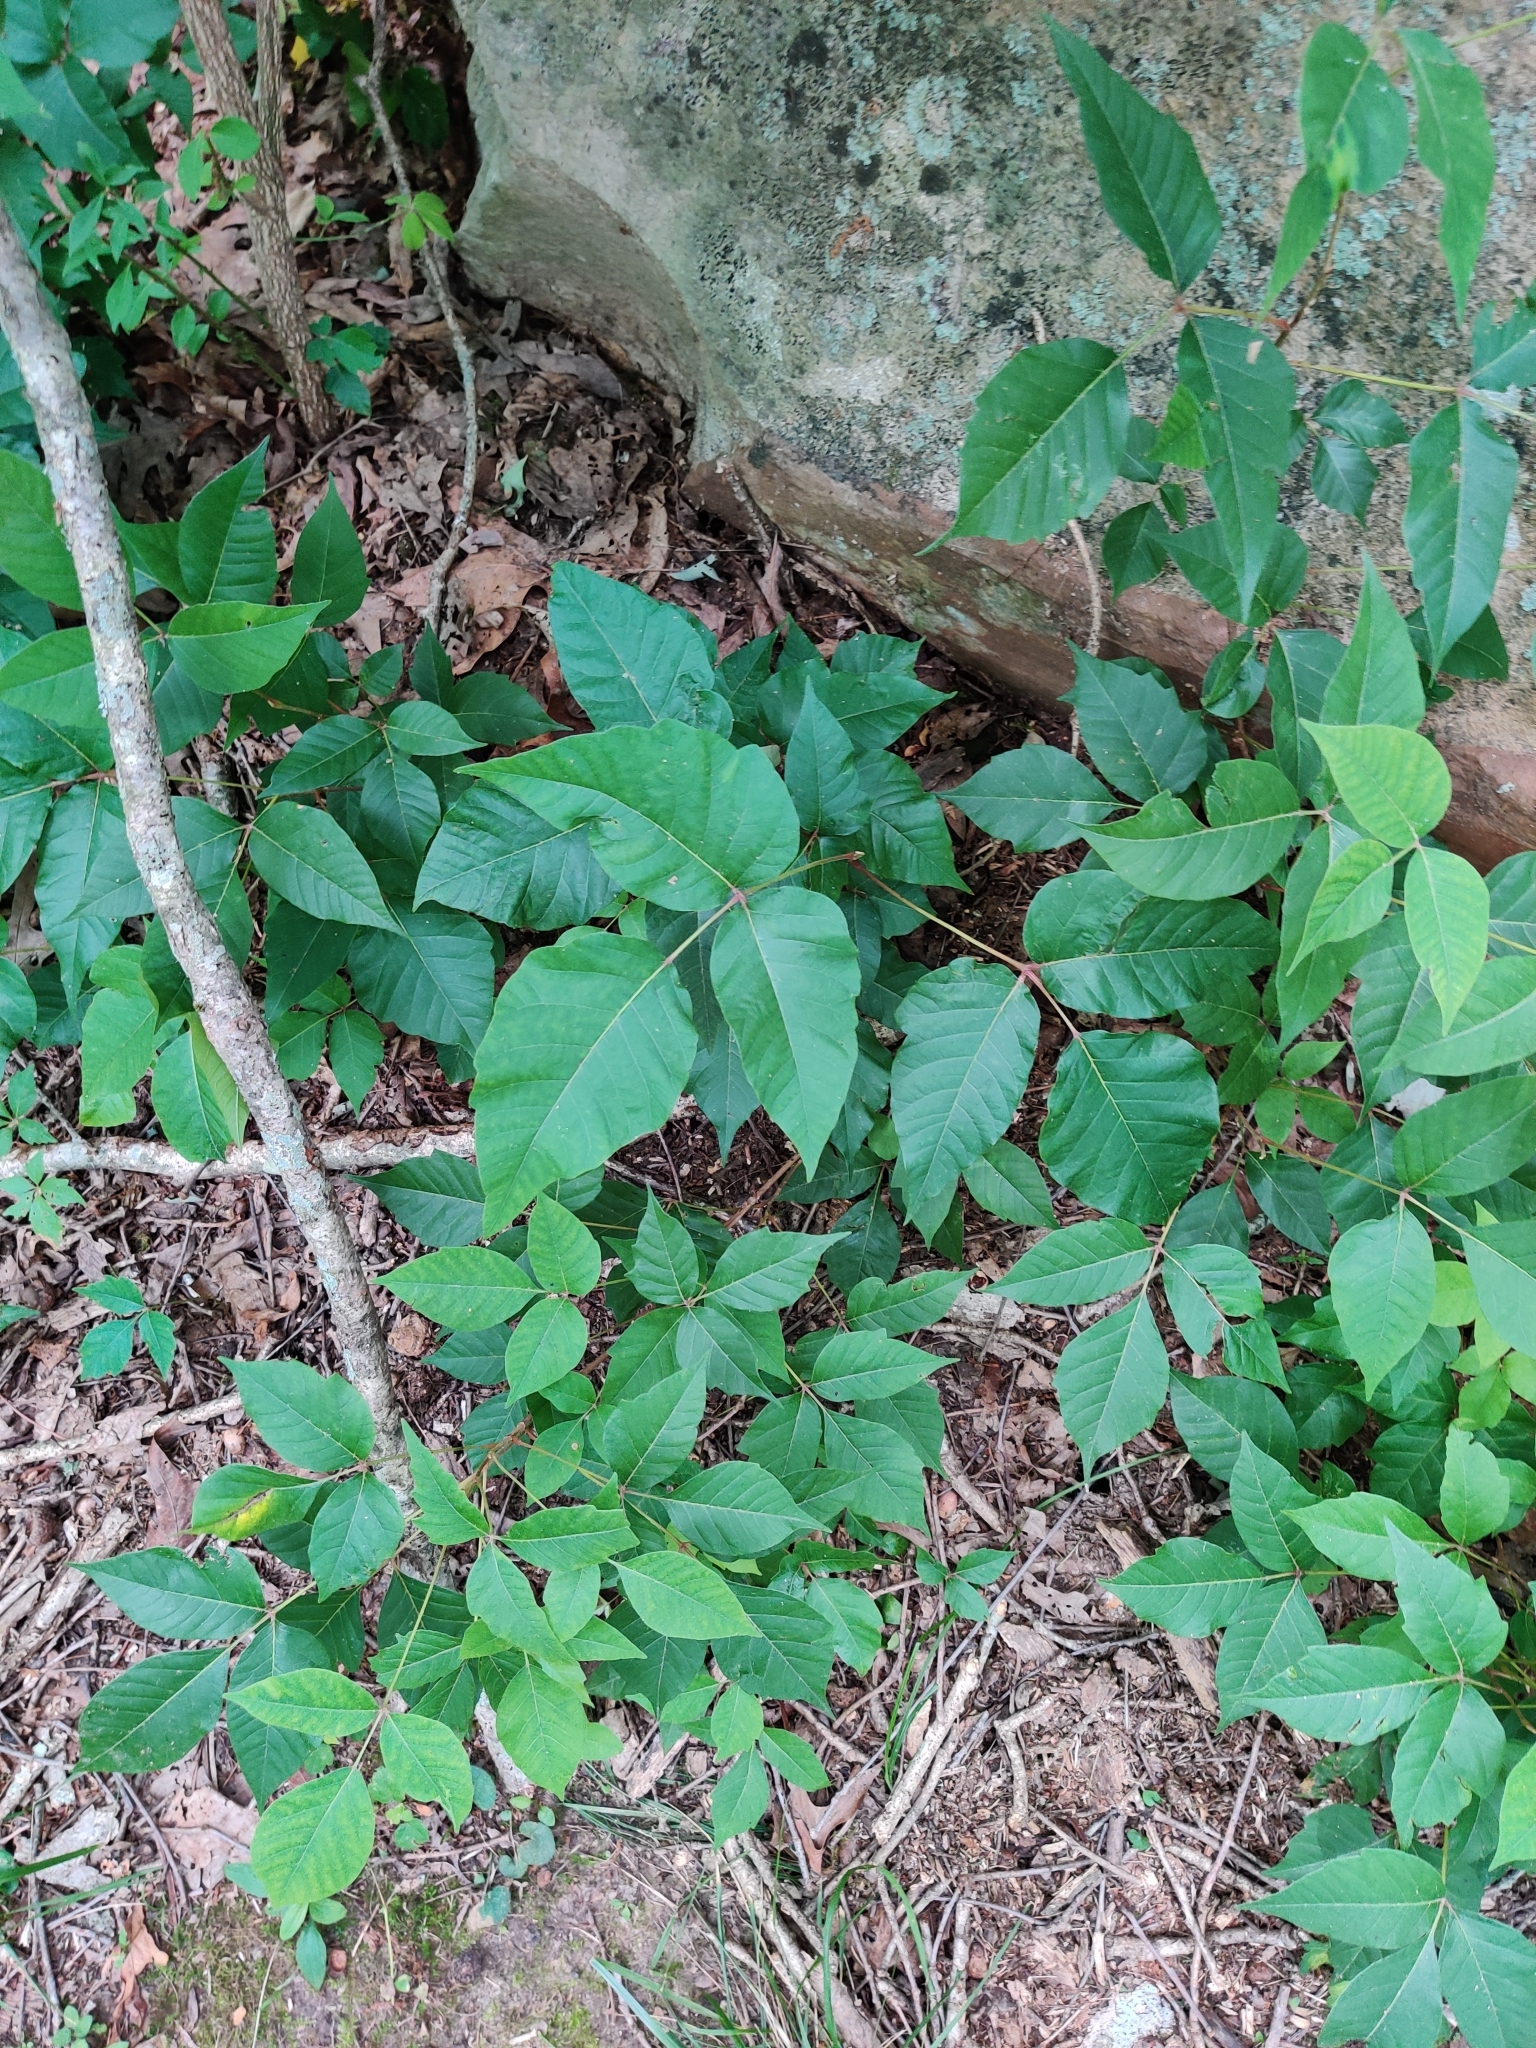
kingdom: Plantae
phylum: Tracheophyta
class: Magnoliopsida
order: Sapindales
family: Anacardiaceae
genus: Toxicodendron
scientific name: Toxicodendron radicans
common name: Poison ivy
